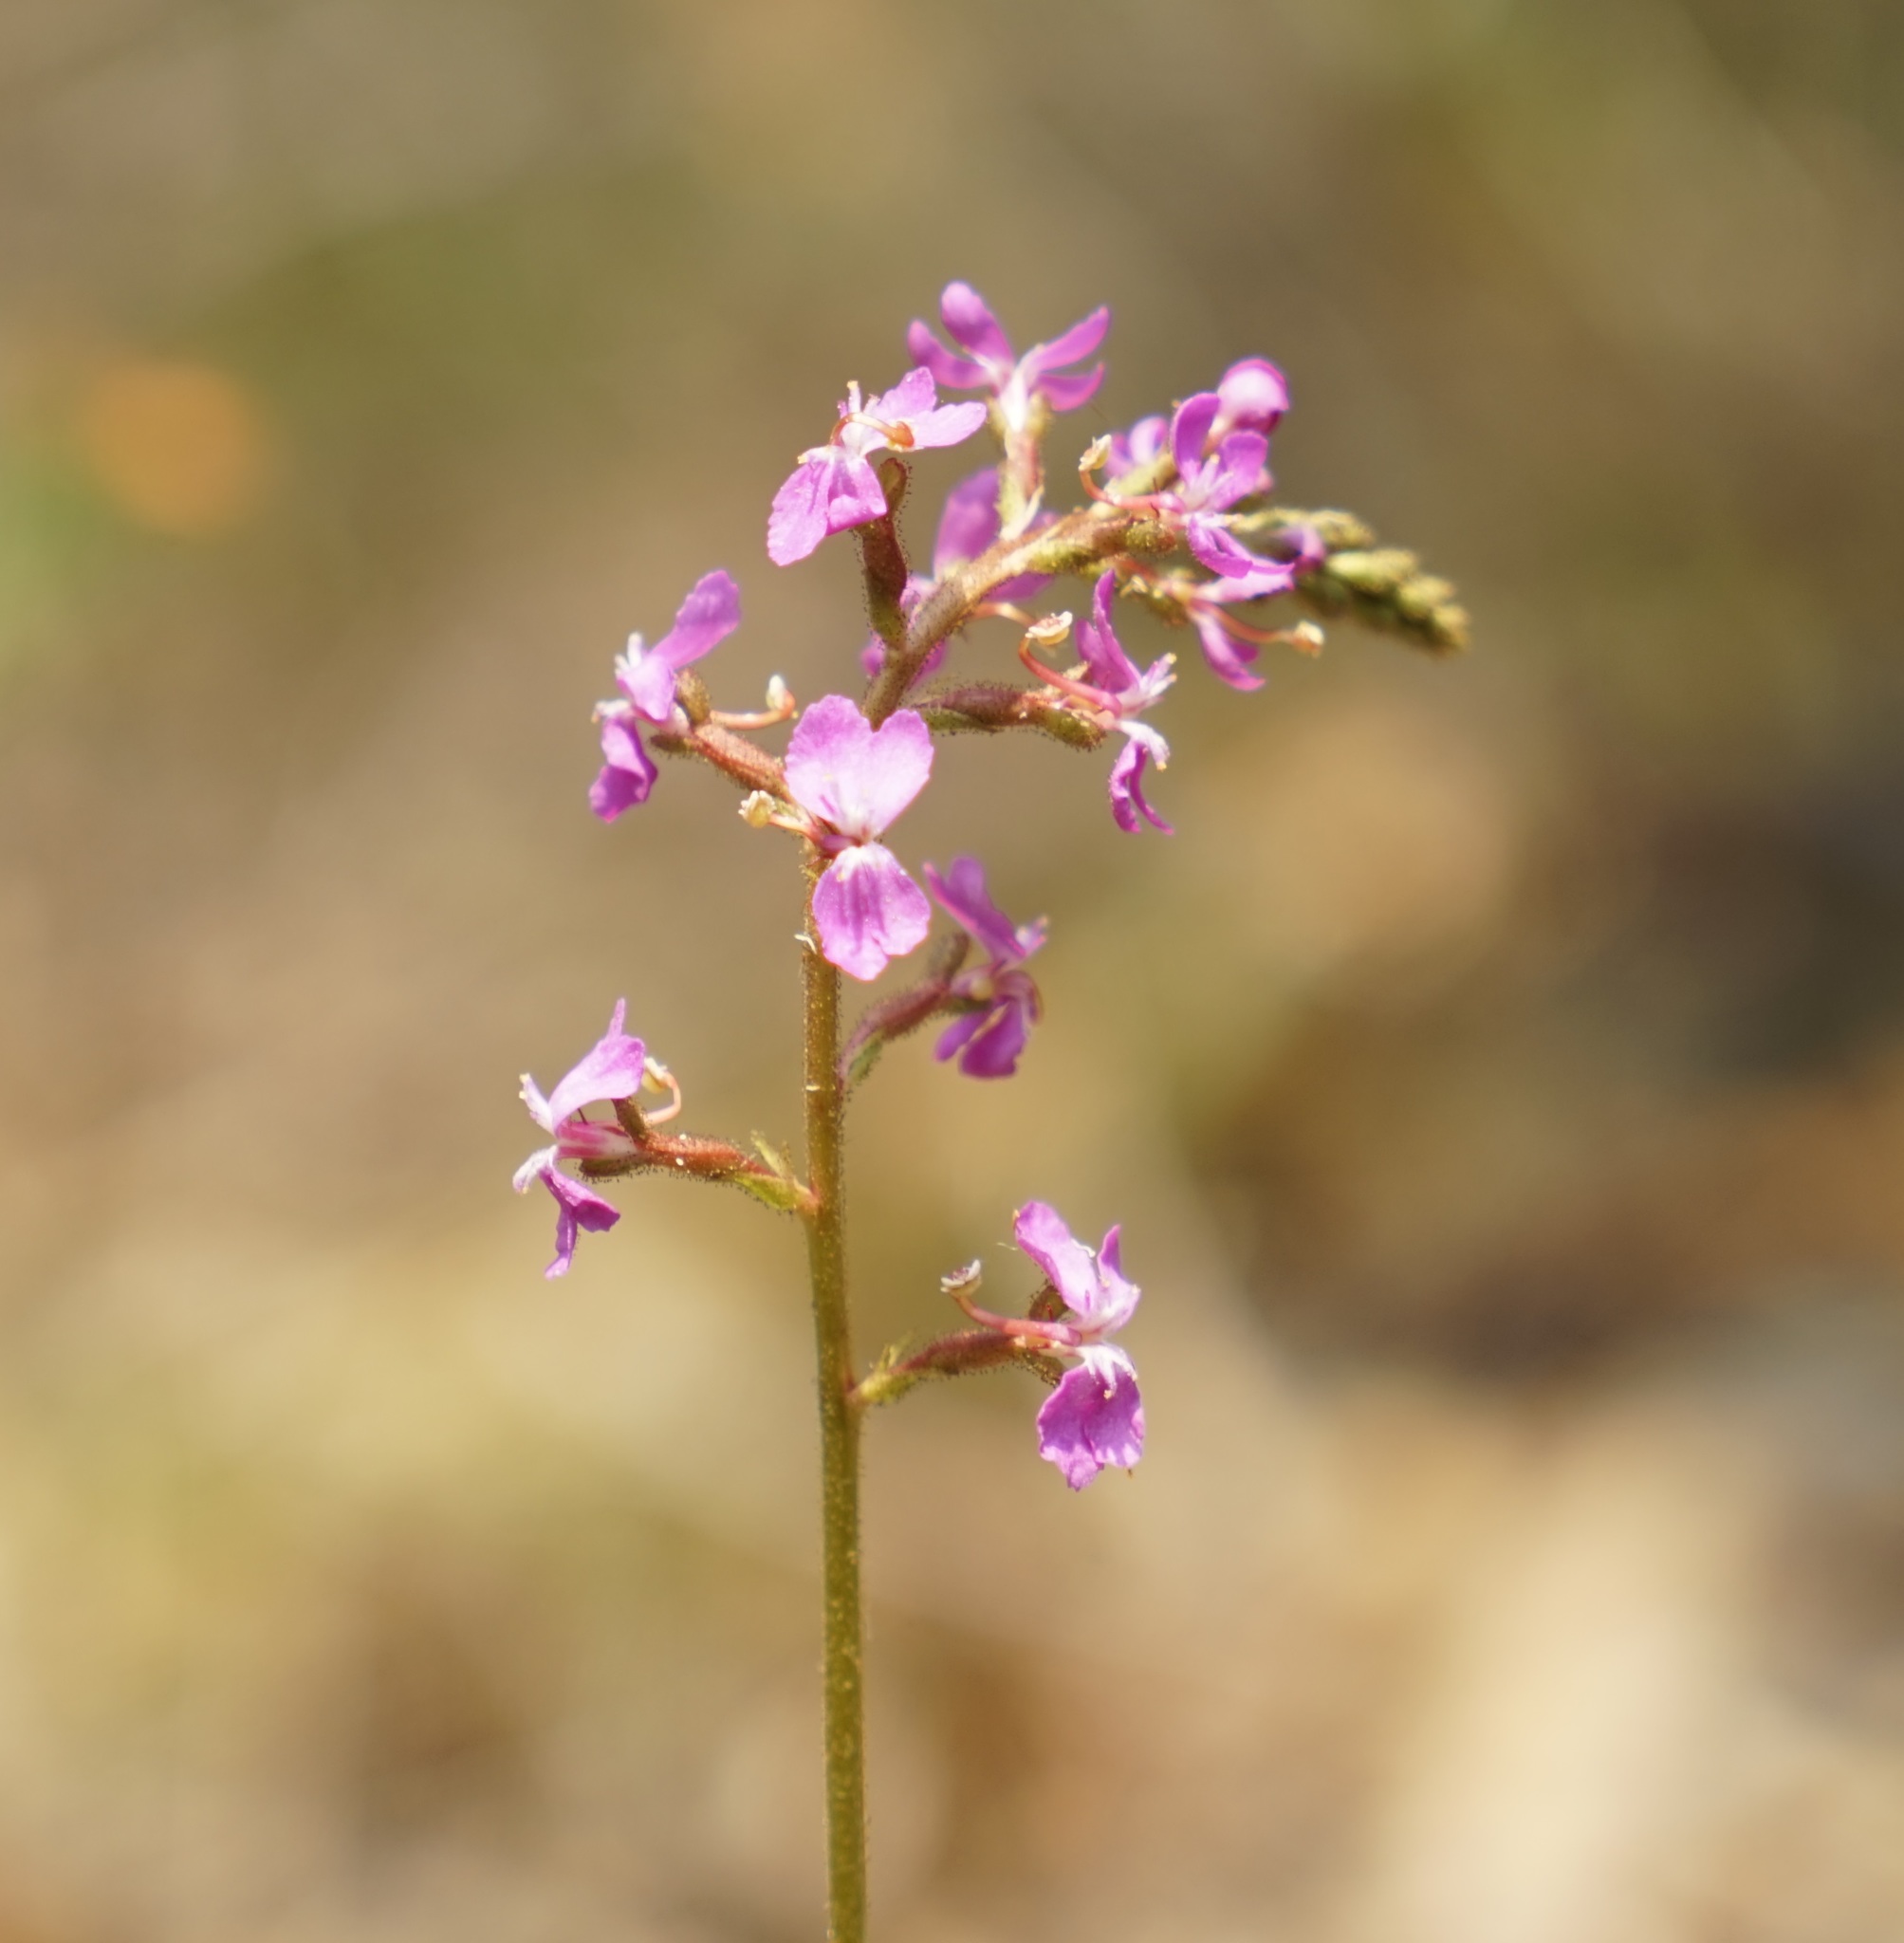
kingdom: Plantae
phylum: Tracheophyta
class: Magnoliopsida
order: Asterales
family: Stylidiaceae
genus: Stylidium
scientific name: Stylidium graminifolium
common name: Grass triggerplant
